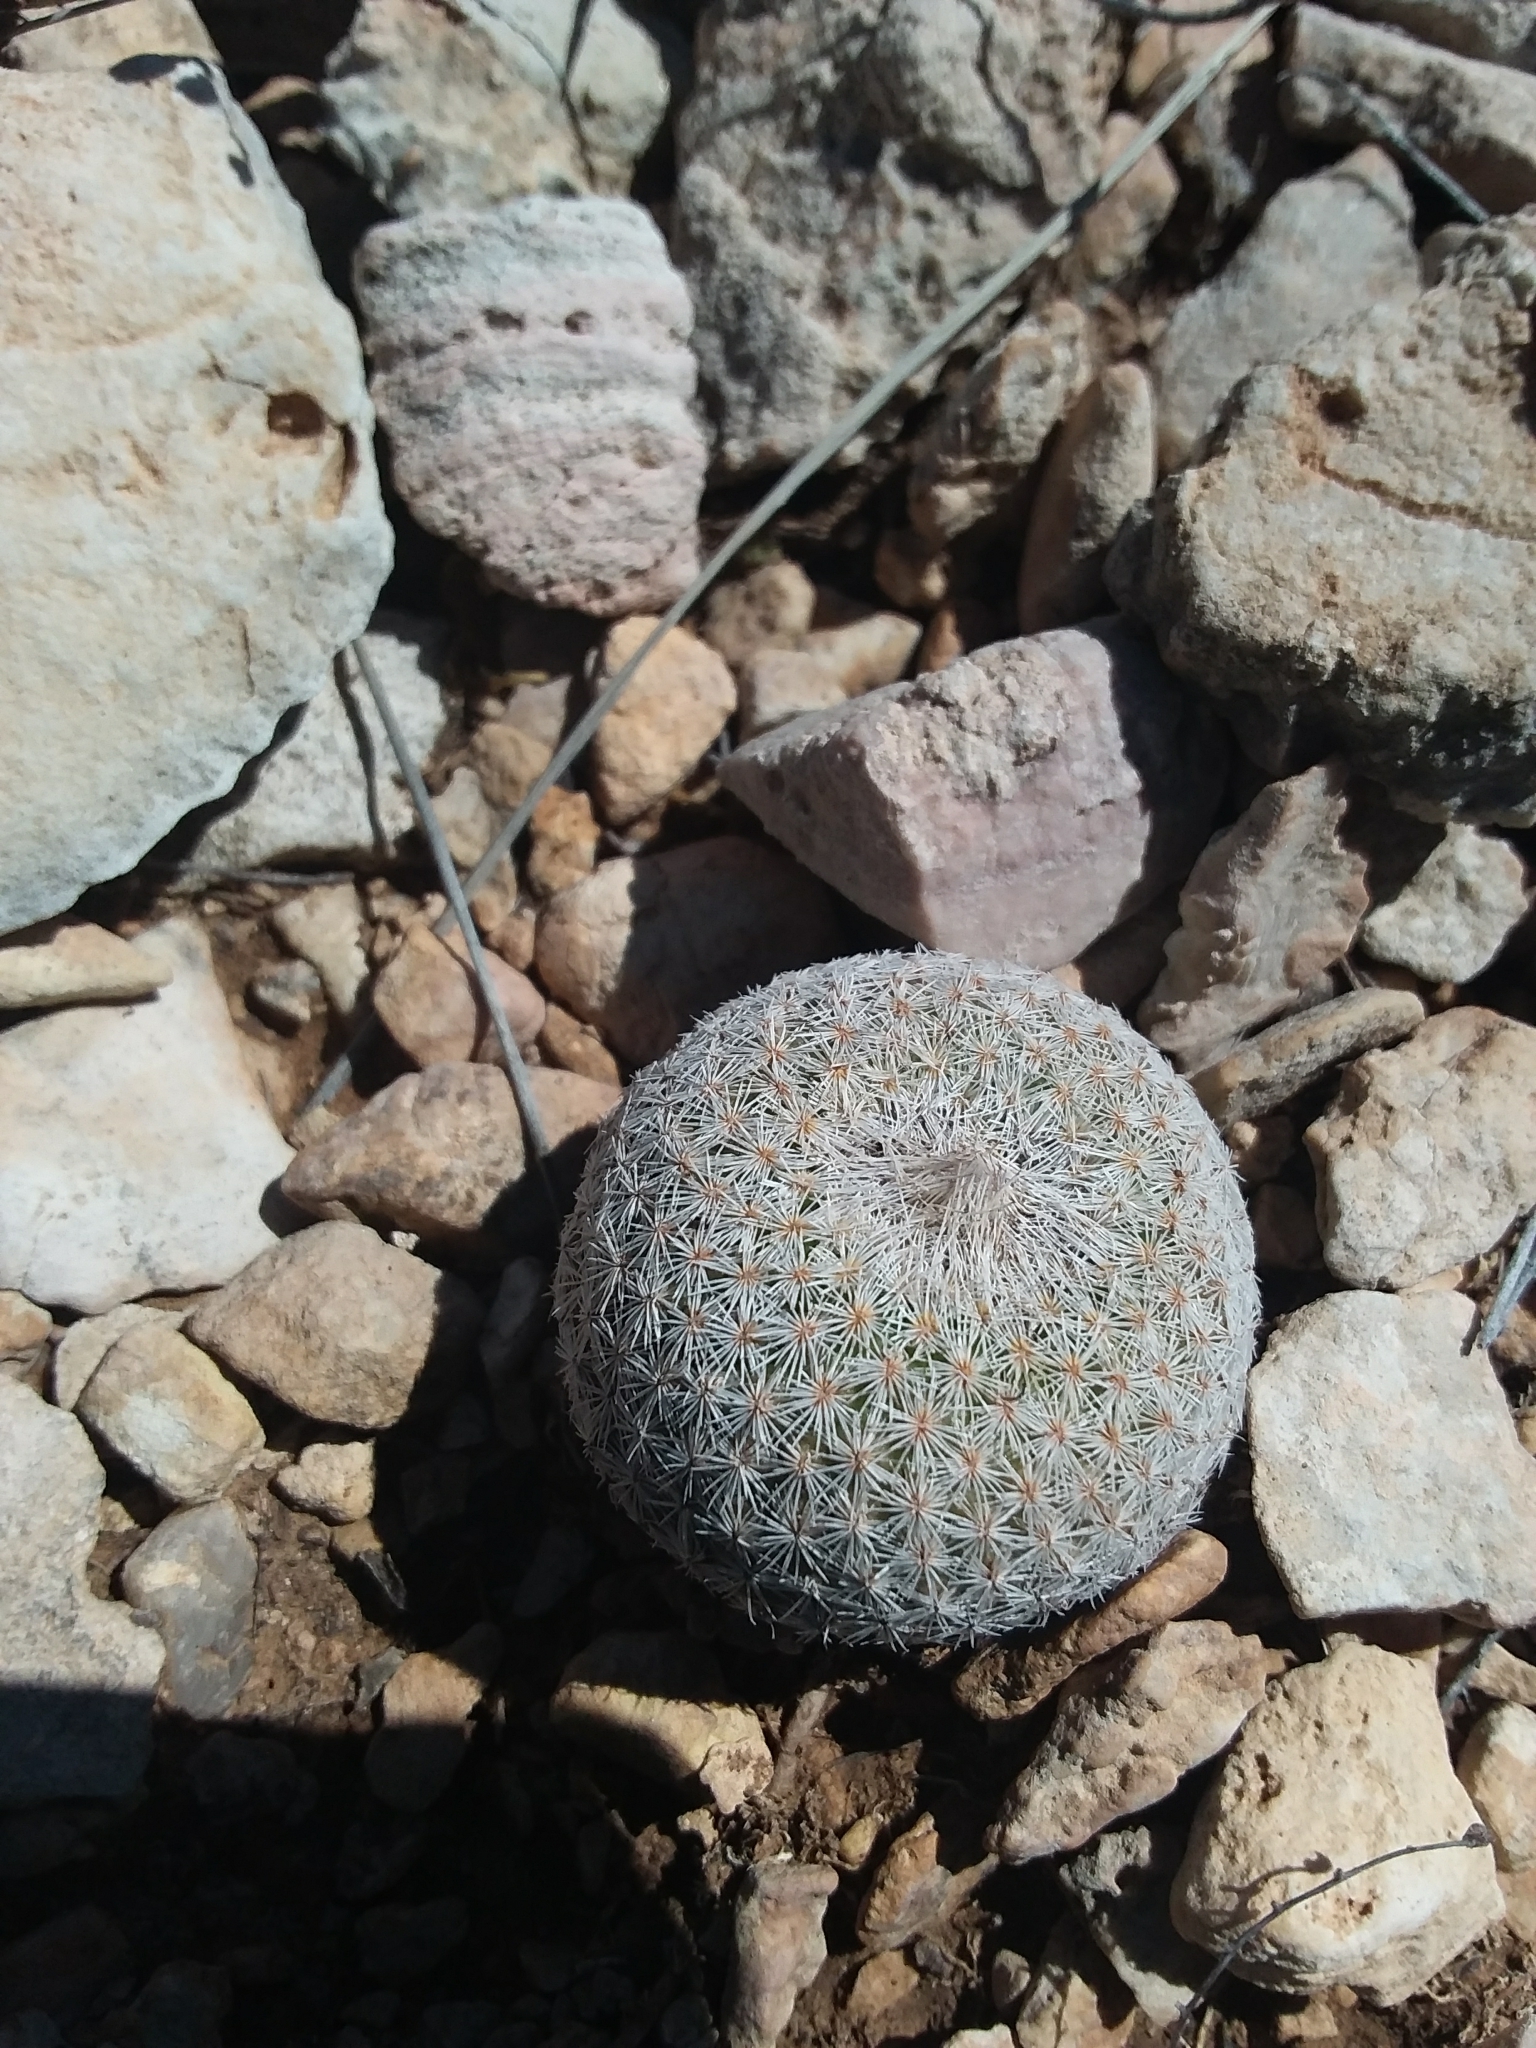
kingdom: Plantae
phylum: Tracheophyta
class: Magnoliopsida
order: Caryophyllales
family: Cactaceae
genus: Epithelantha
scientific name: Epithelantha micromeris
